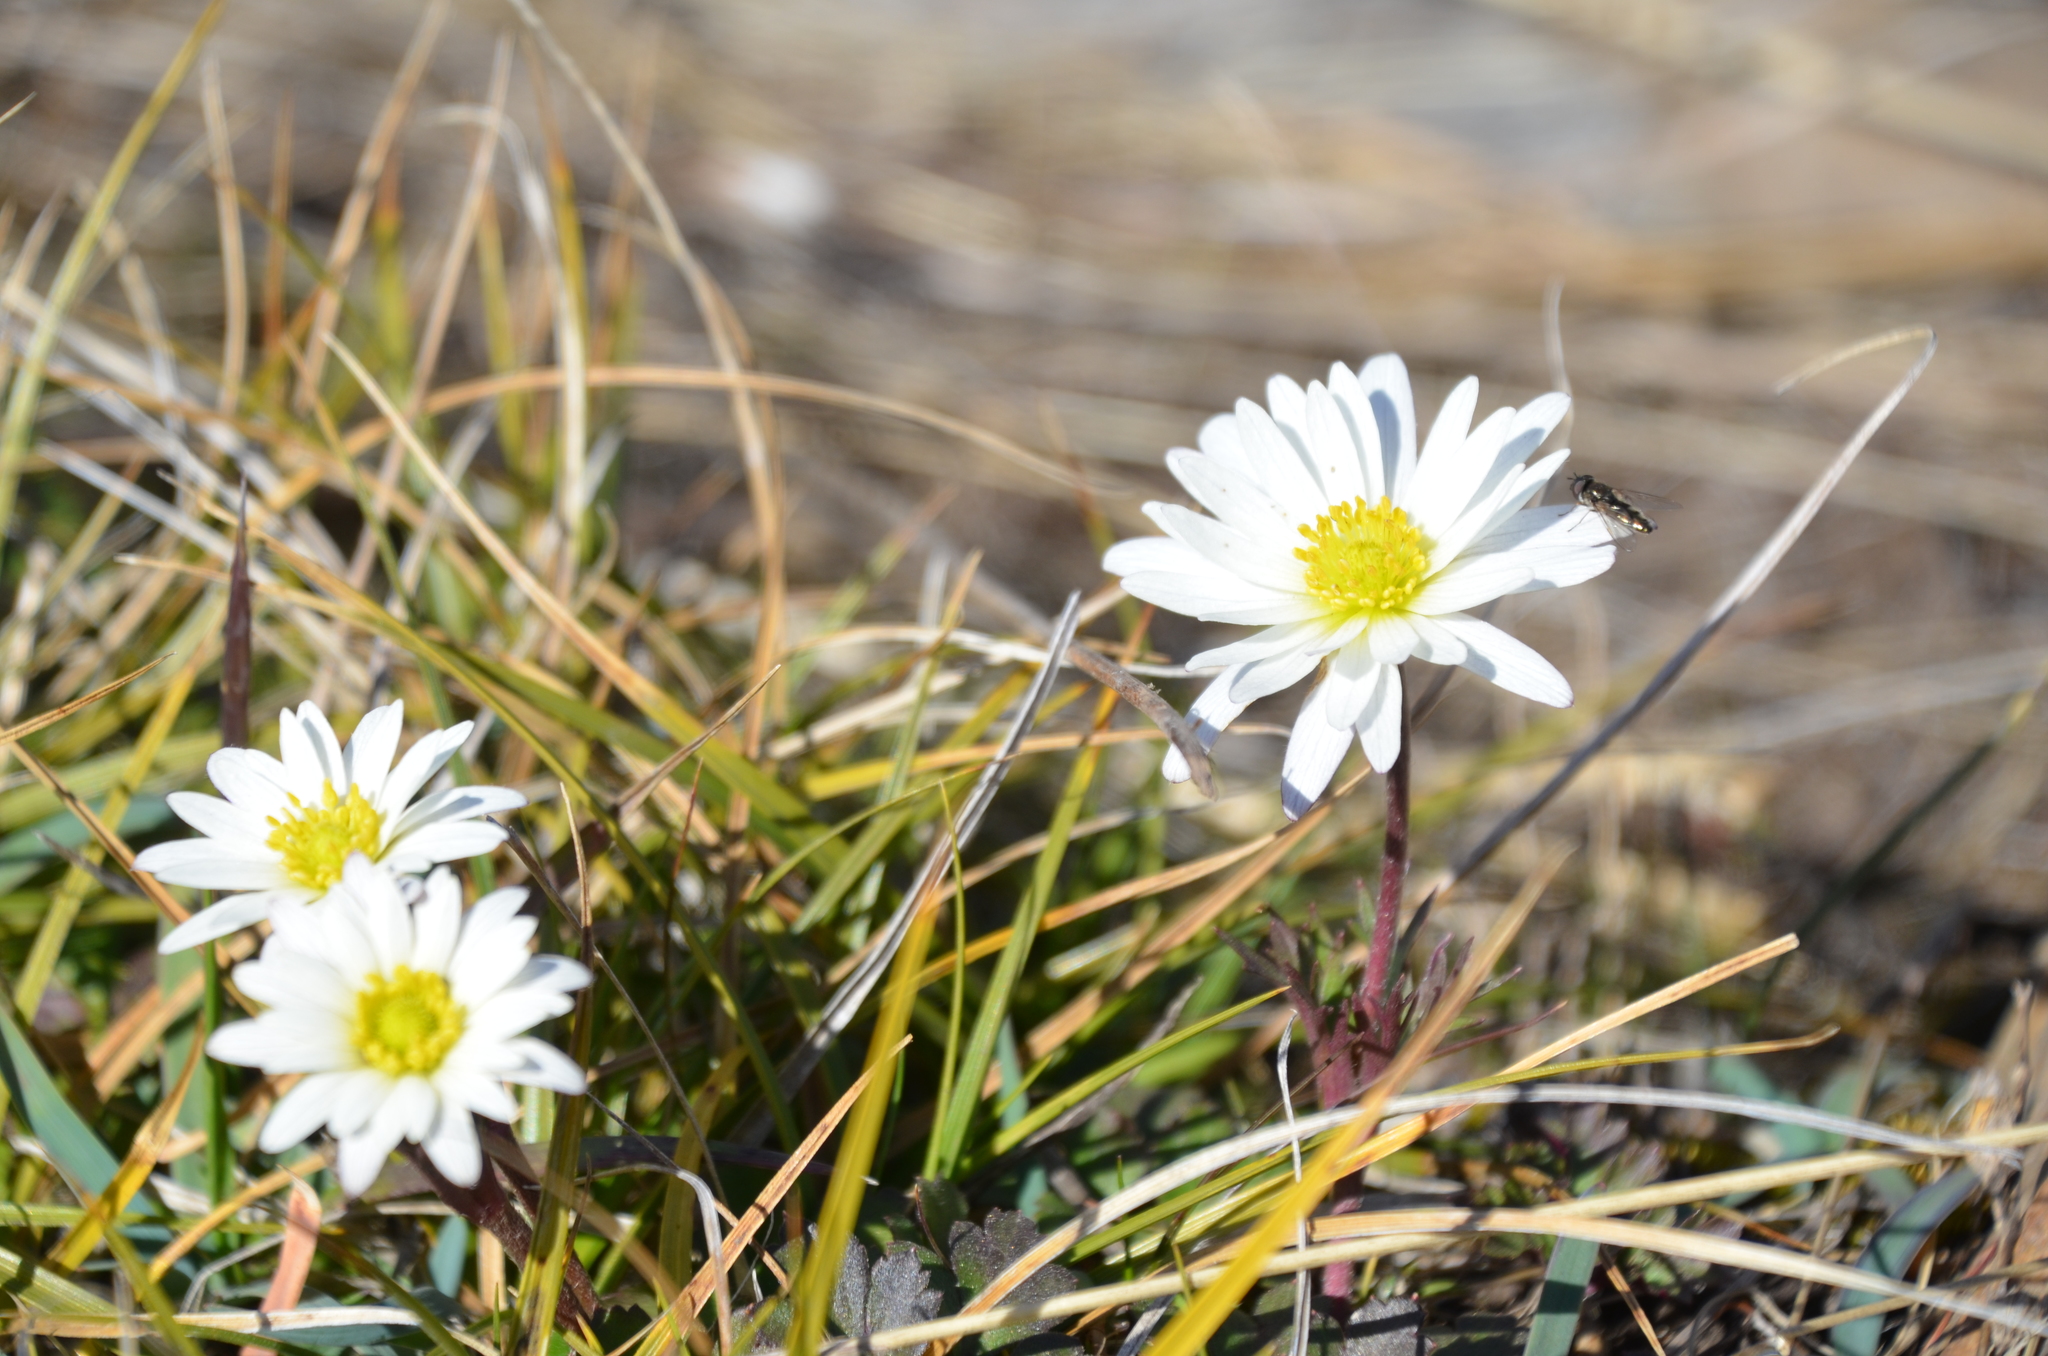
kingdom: Plantae
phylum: Tracheophyta
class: Magnoliopsida
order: Ranunculales
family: Ranunculaceae
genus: Anemone
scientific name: Anemone decapetala
